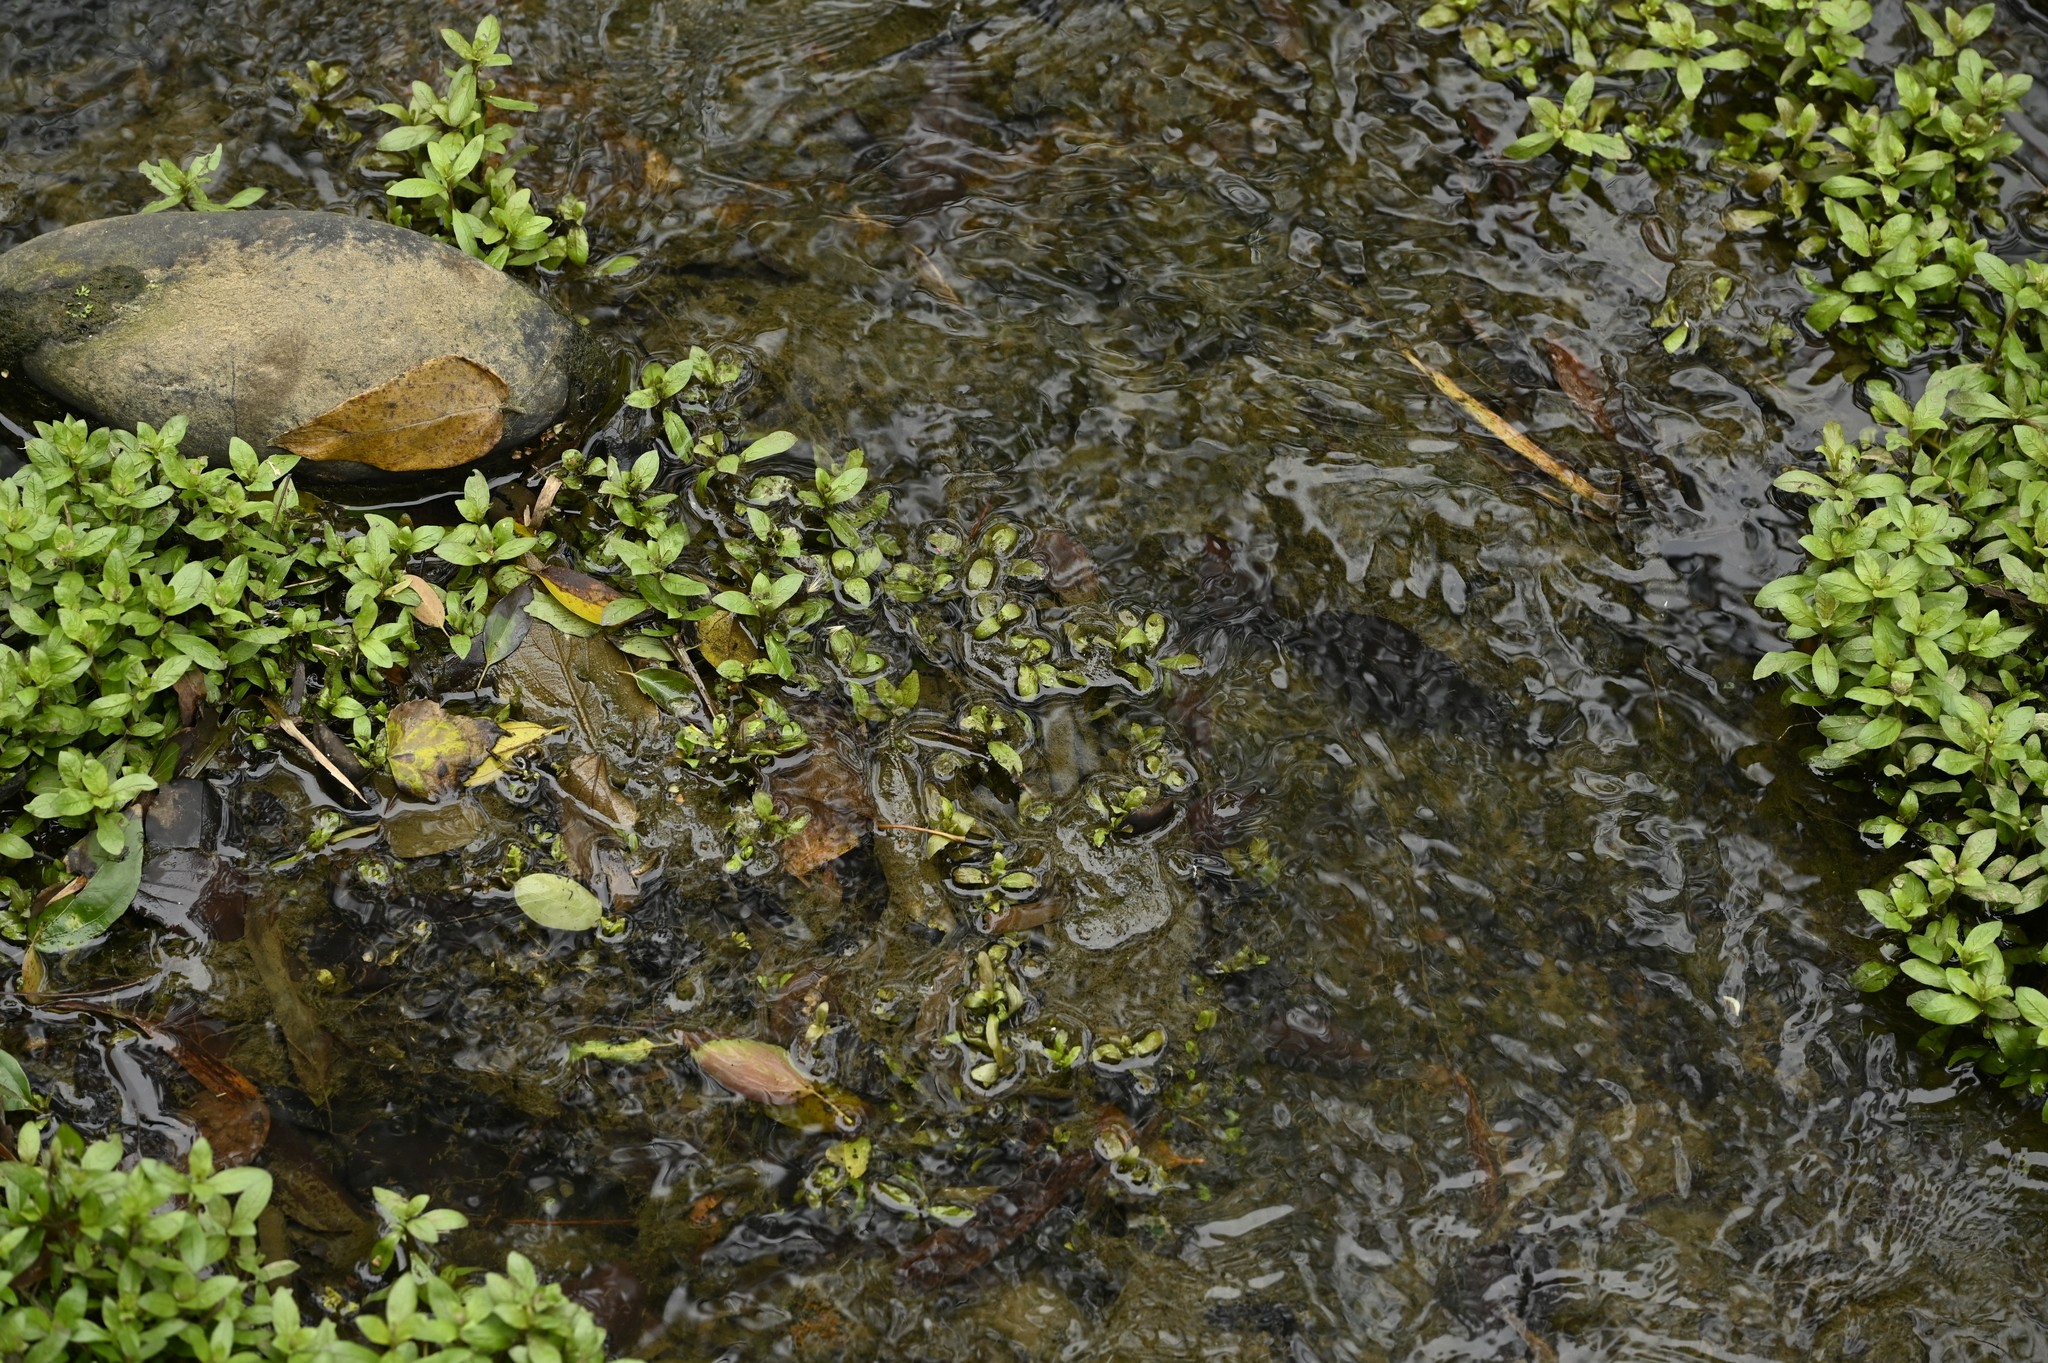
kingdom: Plantae
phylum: Tracheophyta
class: Magnoliopsida
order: Lamiales
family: Acanthaceae
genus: Hygrophila
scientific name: Hygrophila polysperma
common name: Indian swampweed
